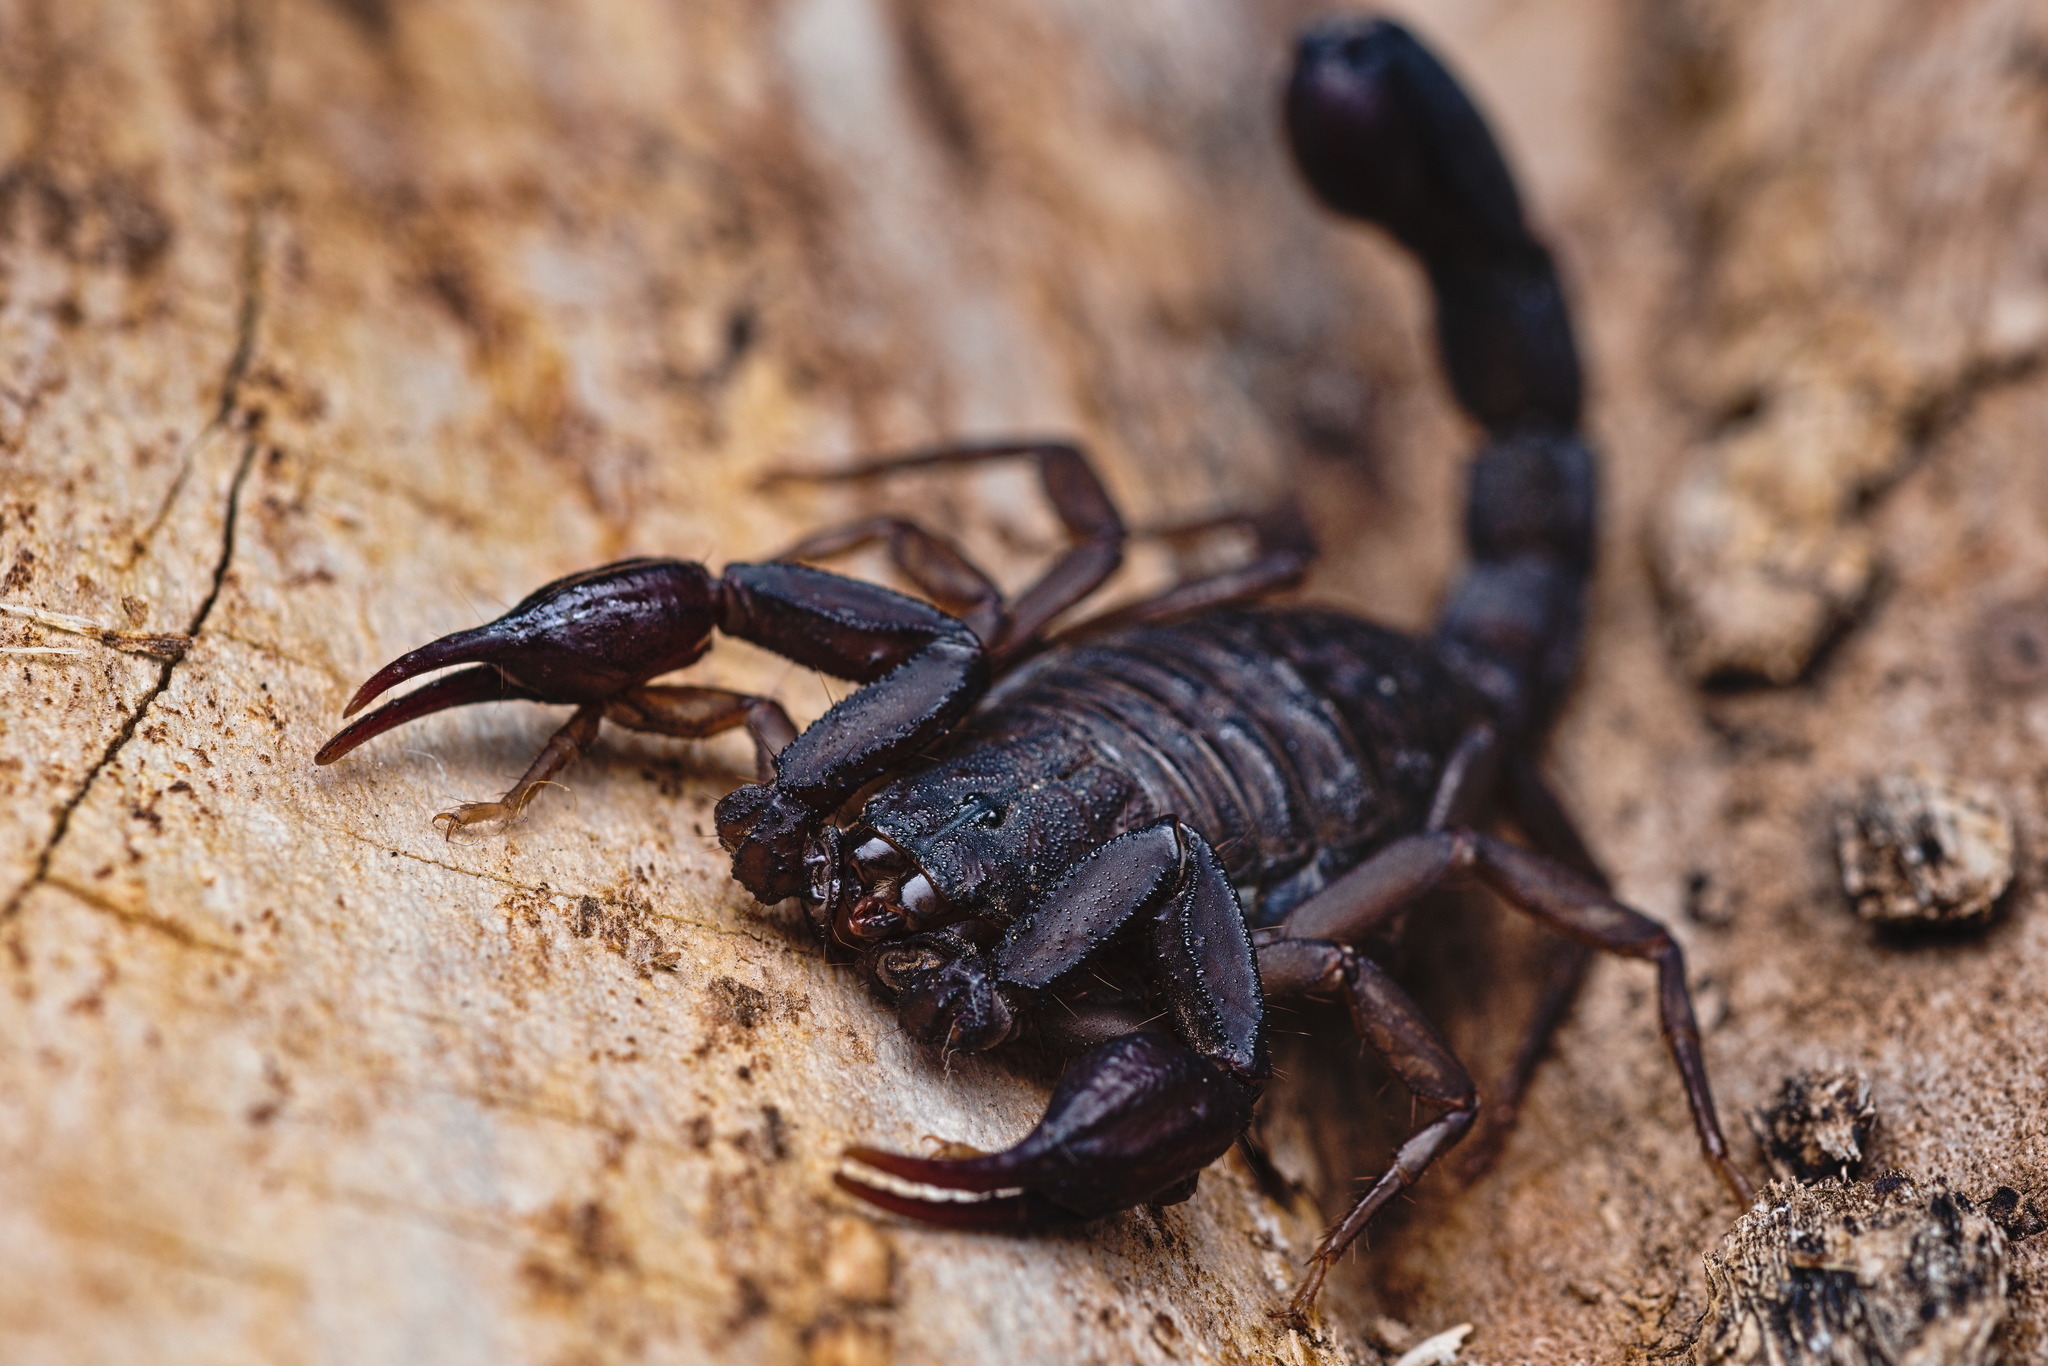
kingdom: Animalia
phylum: Arthropoda
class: Arachnida
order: Scorpiones
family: Vaejovidae
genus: Vaejovis
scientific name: Vaejovis mexicanus
